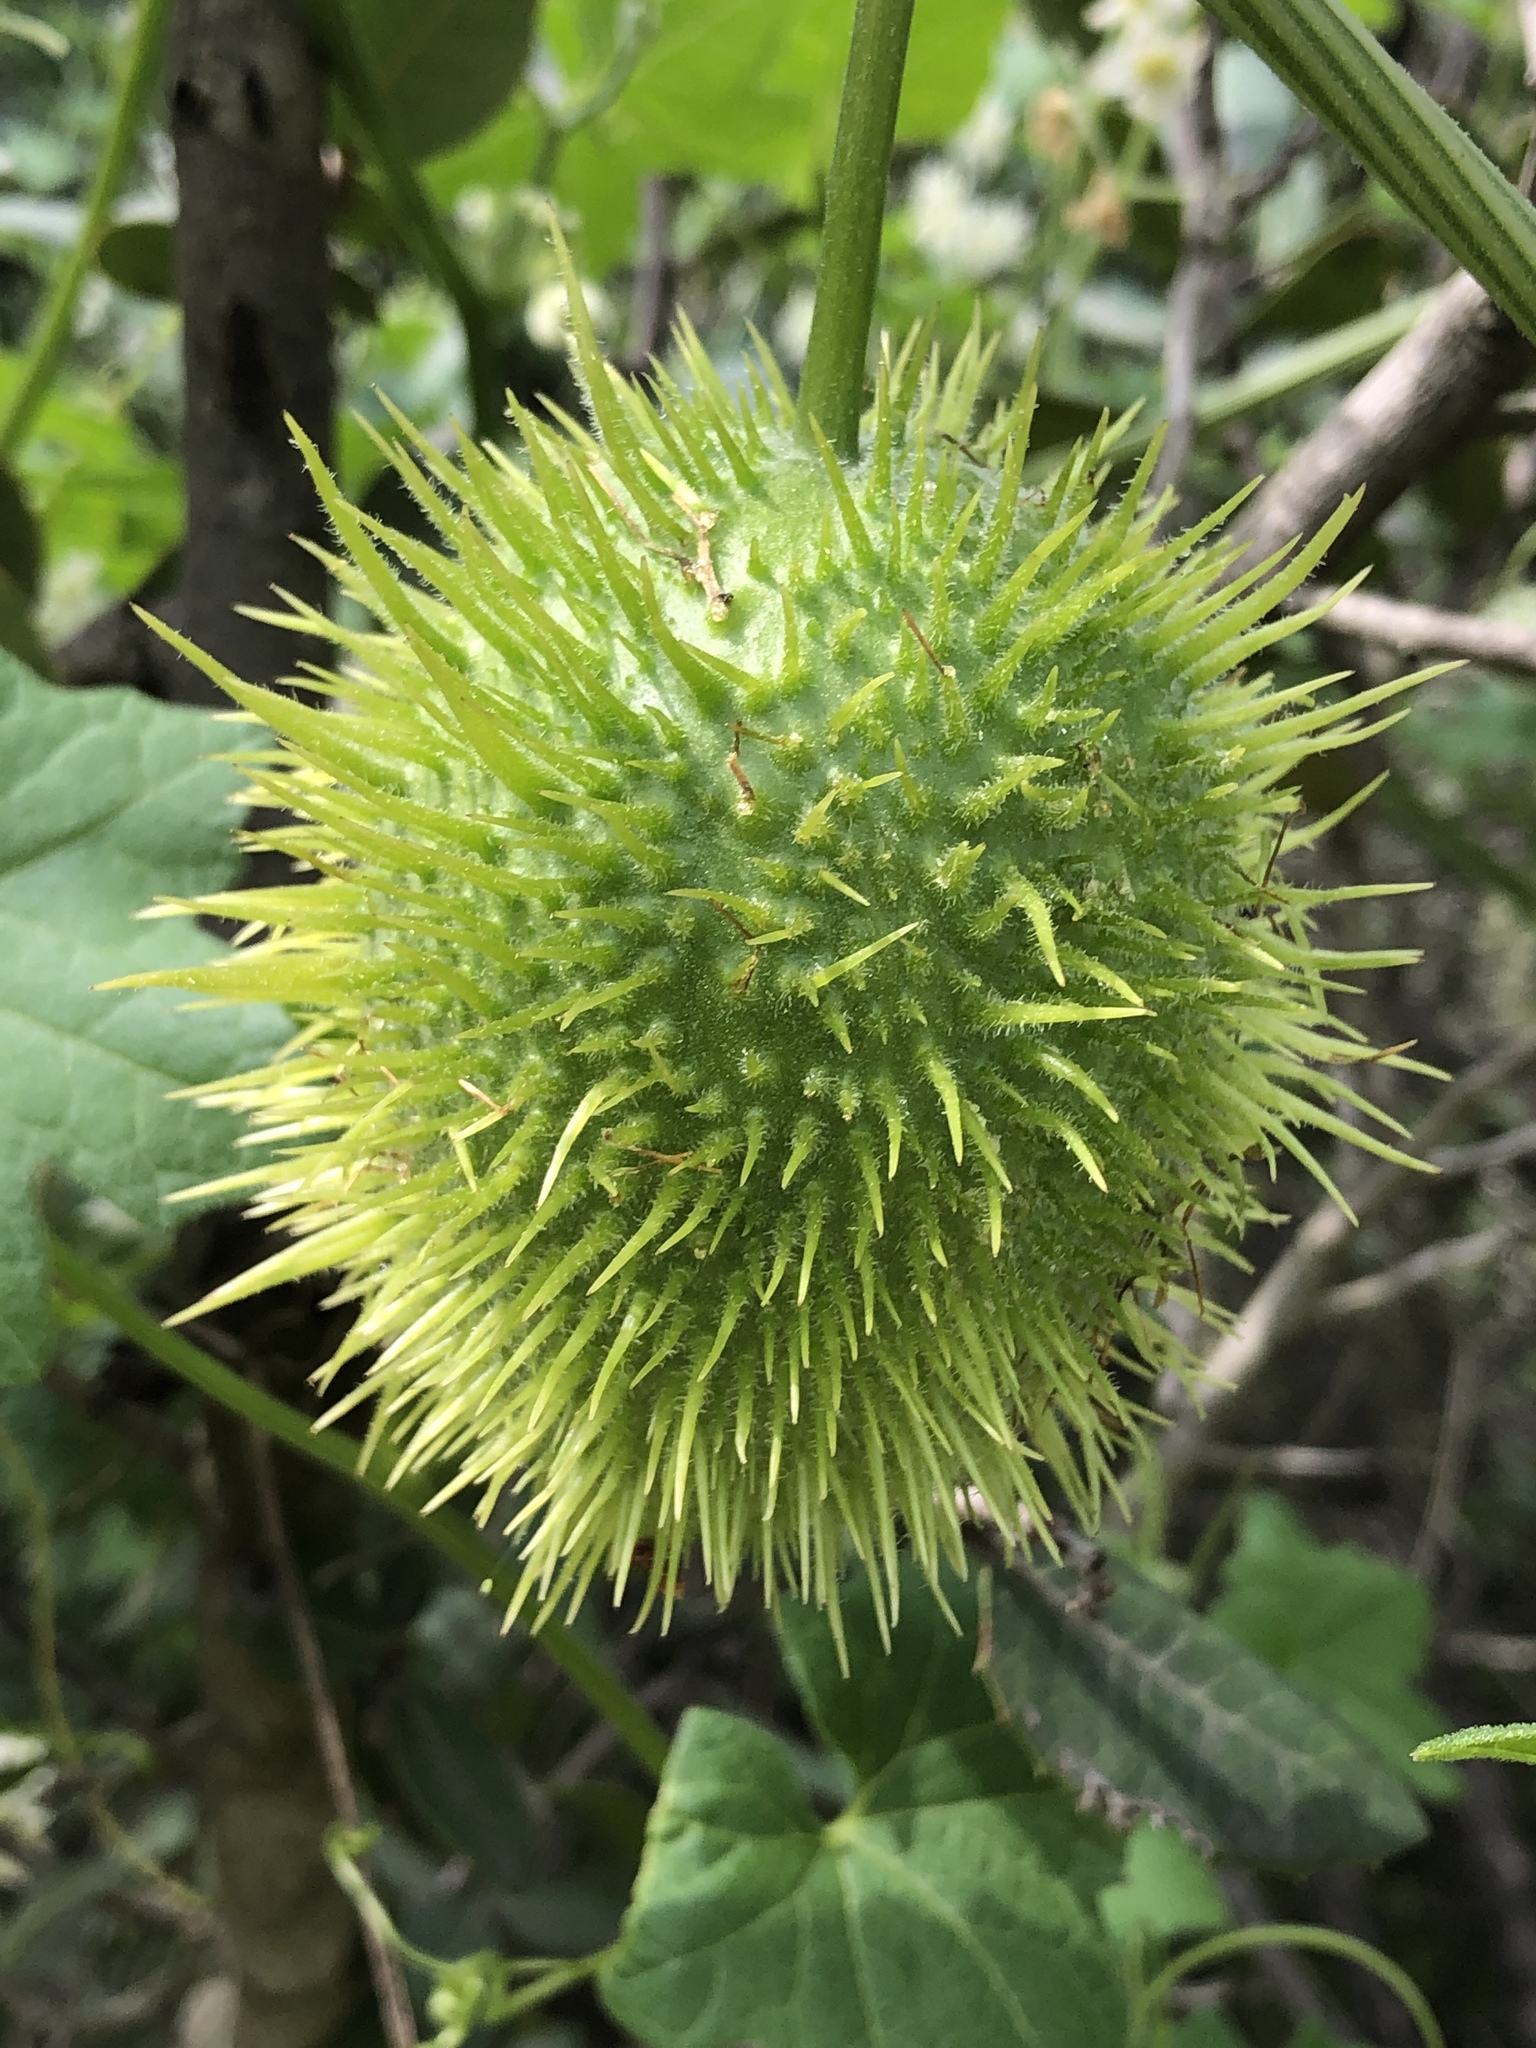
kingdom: Plantae
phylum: Tracheophyta
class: Magnoliopsida
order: Cucurbitales
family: Cucurbitaceae
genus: Marah
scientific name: Marah macrocarpa
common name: Cucamonga manroot
